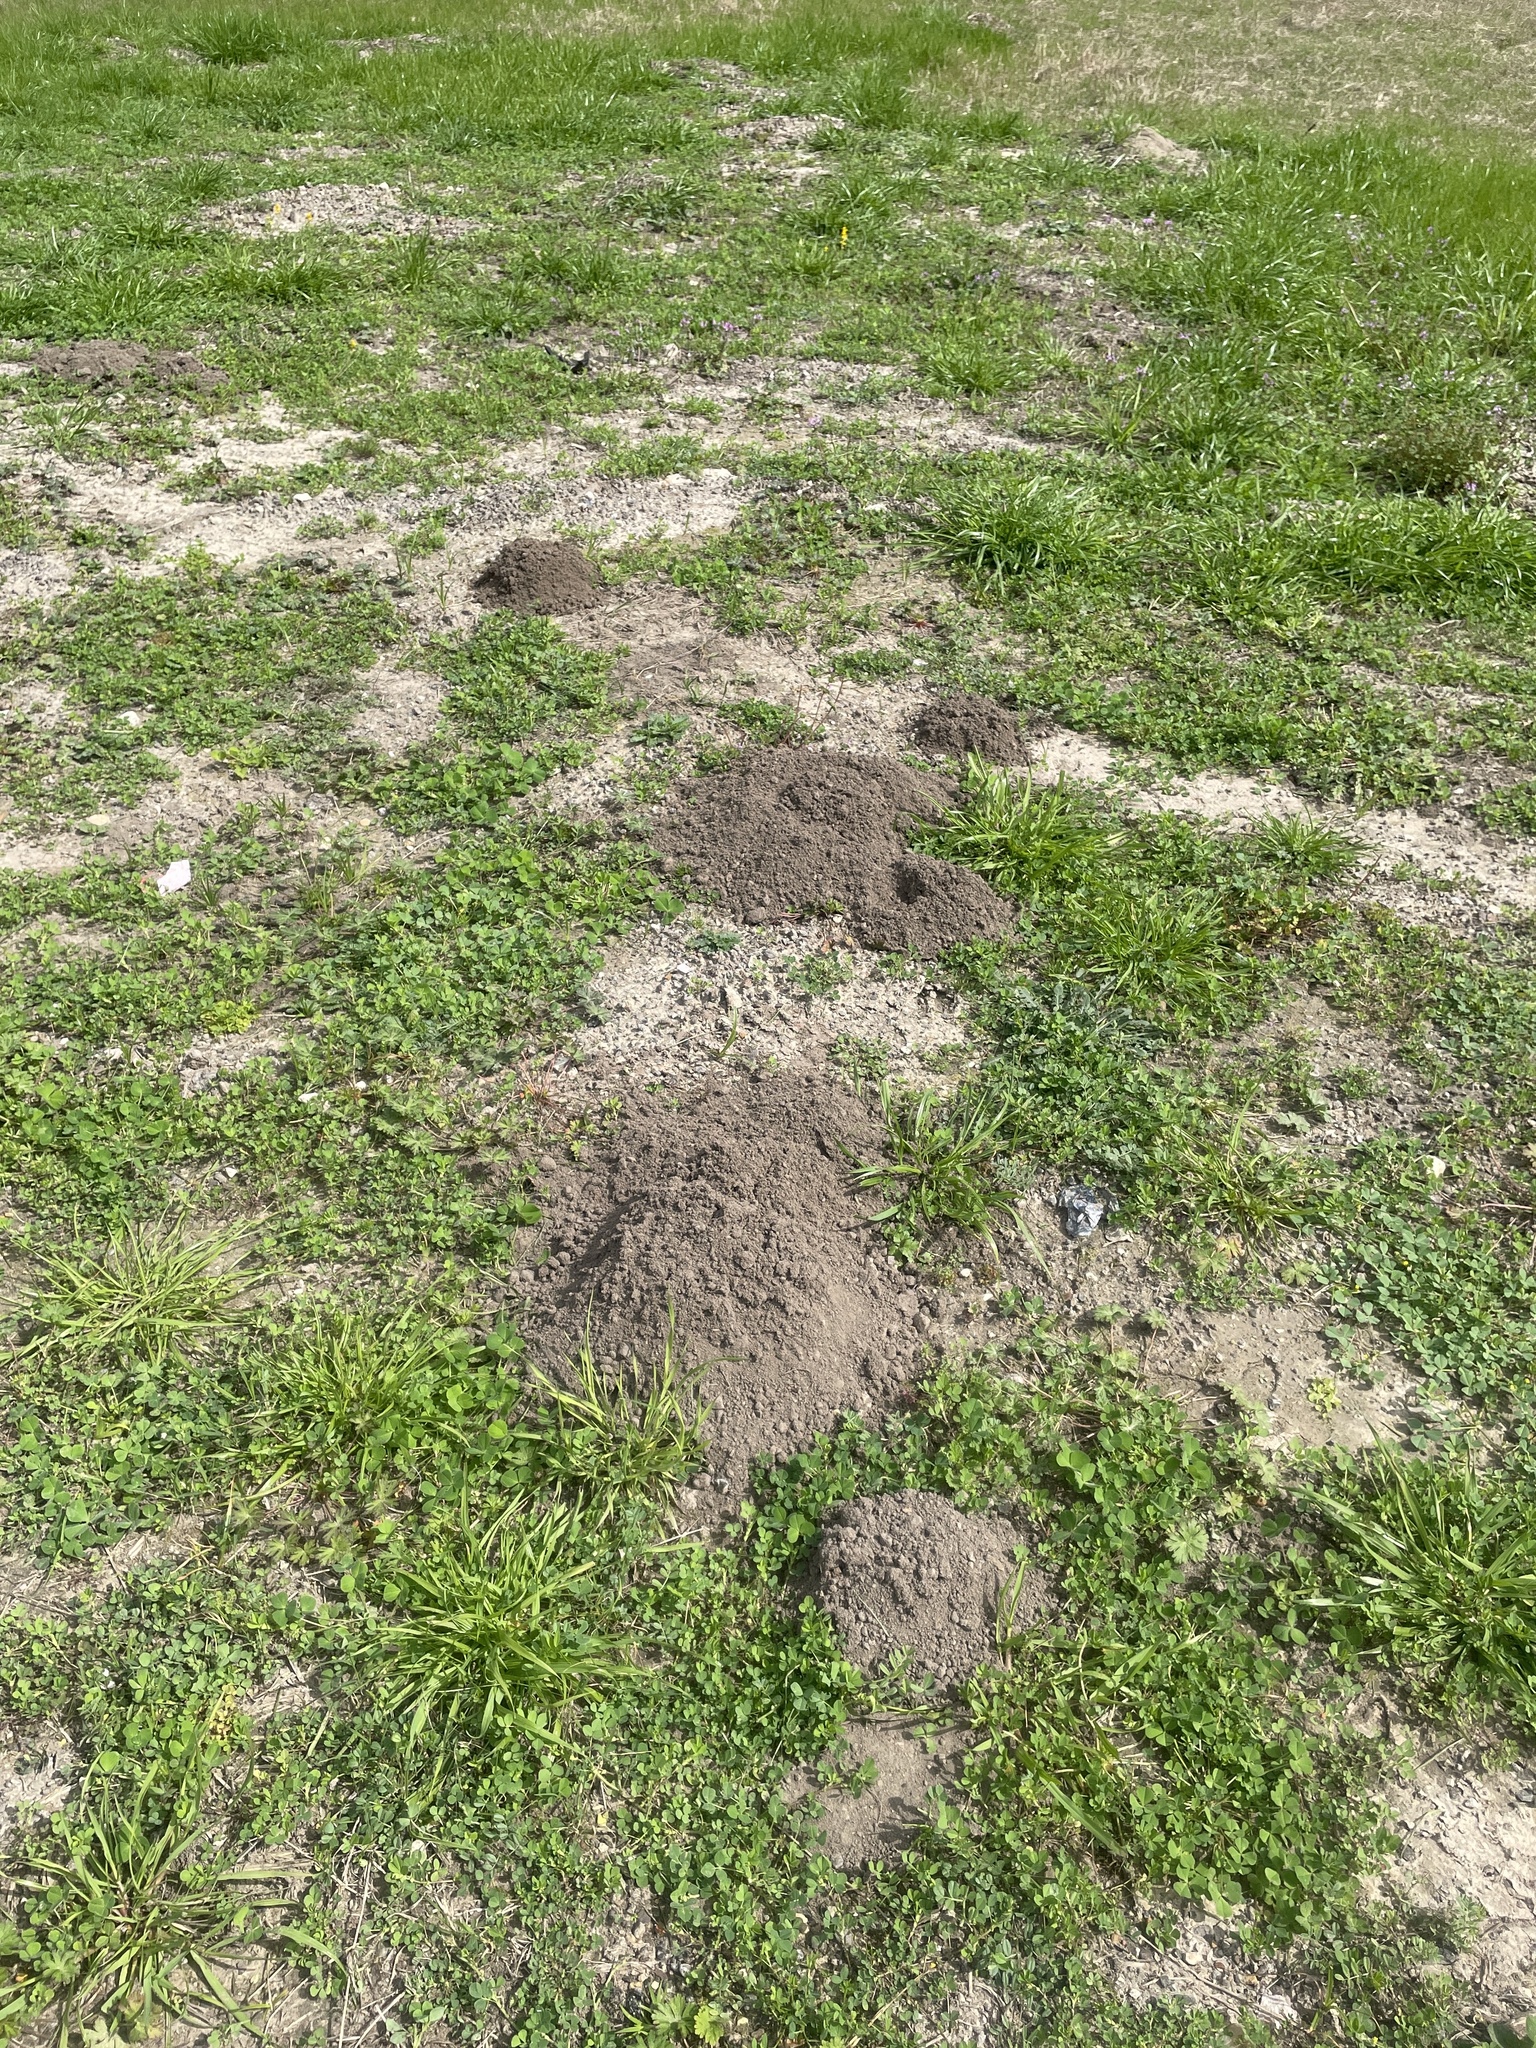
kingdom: Animalia
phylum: Chordata
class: Mammalia
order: Rodentia
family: Geomyidae
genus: Geomys
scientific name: Geomys breviceps
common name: Baird's pocket gopher
